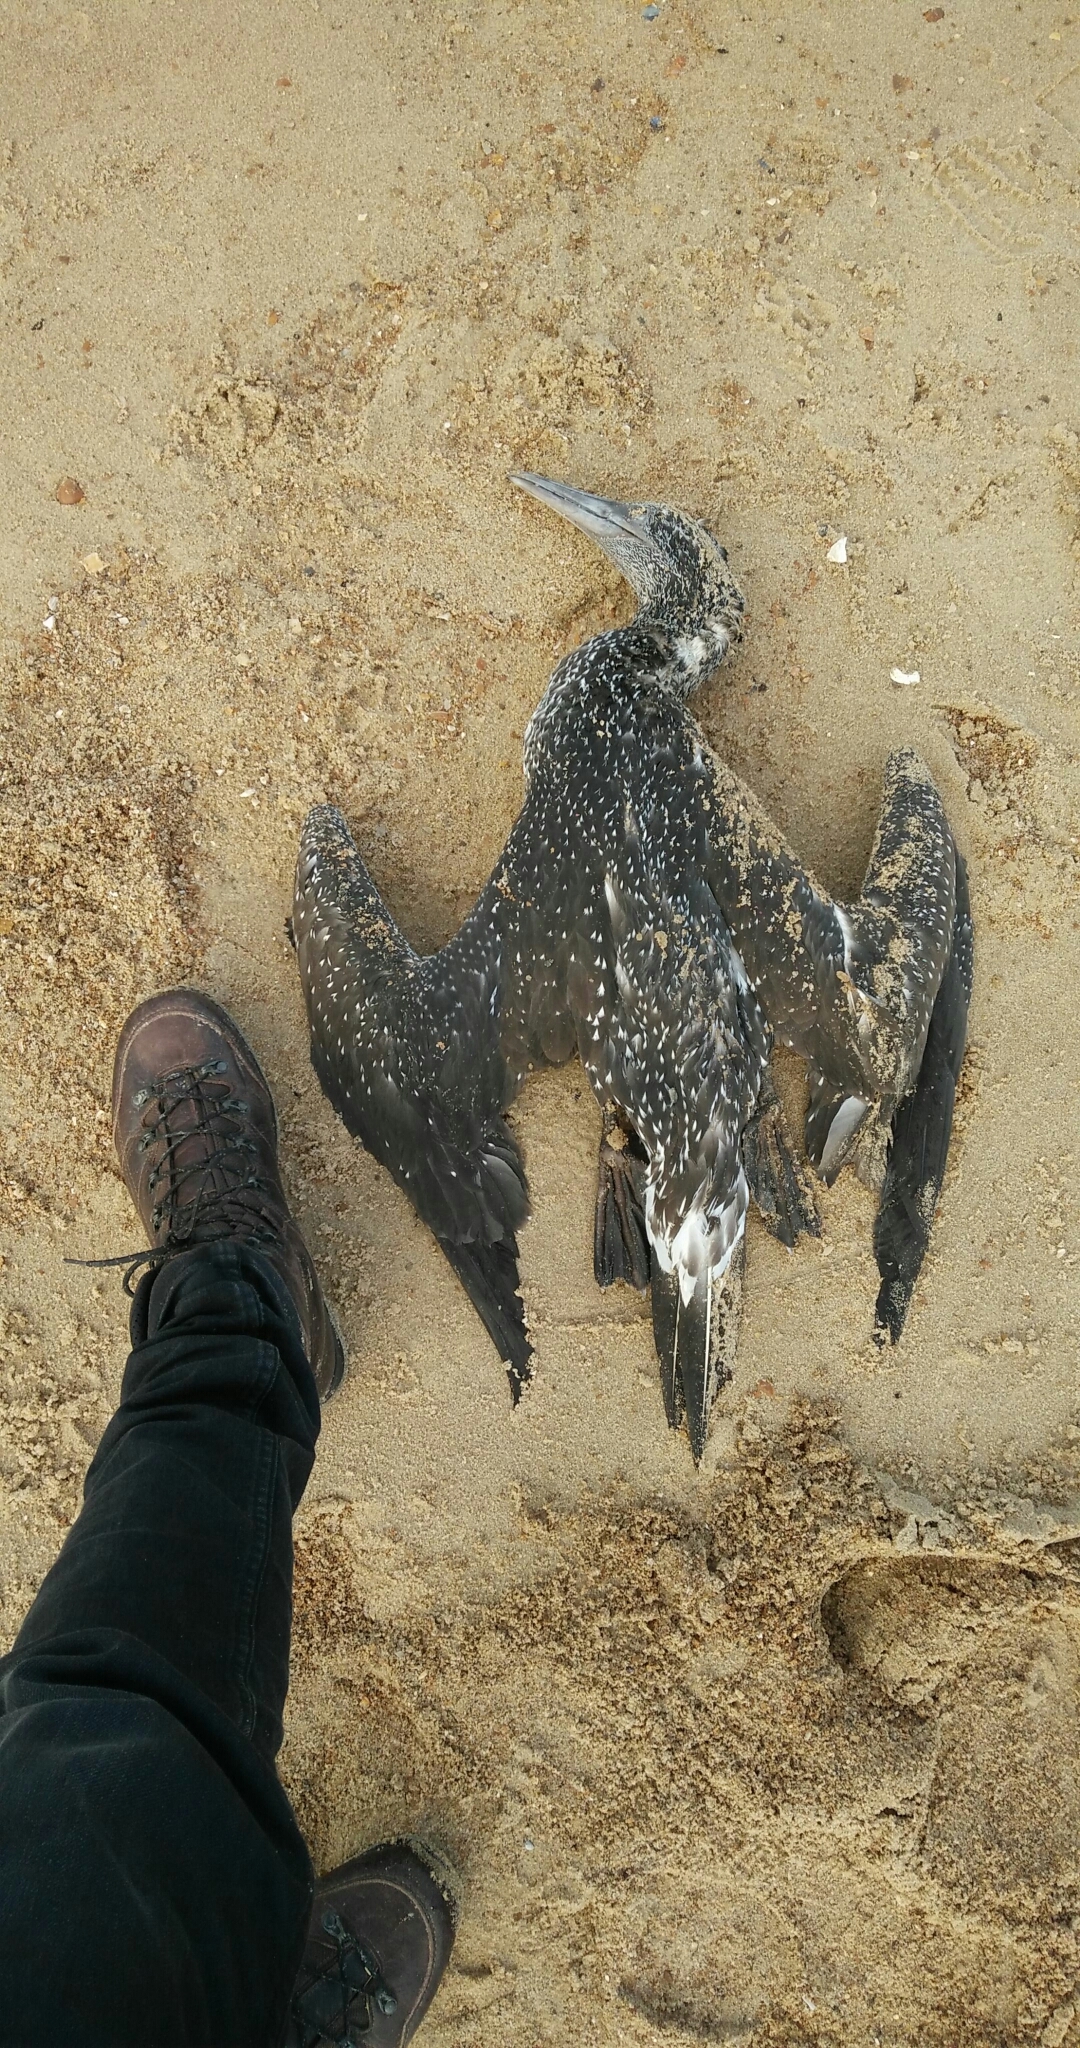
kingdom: Animalia
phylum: Chordata
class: Aves
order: Suliformes
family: Sulidae
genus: Morus
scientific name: Morus bassanus
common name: Northern gannet
